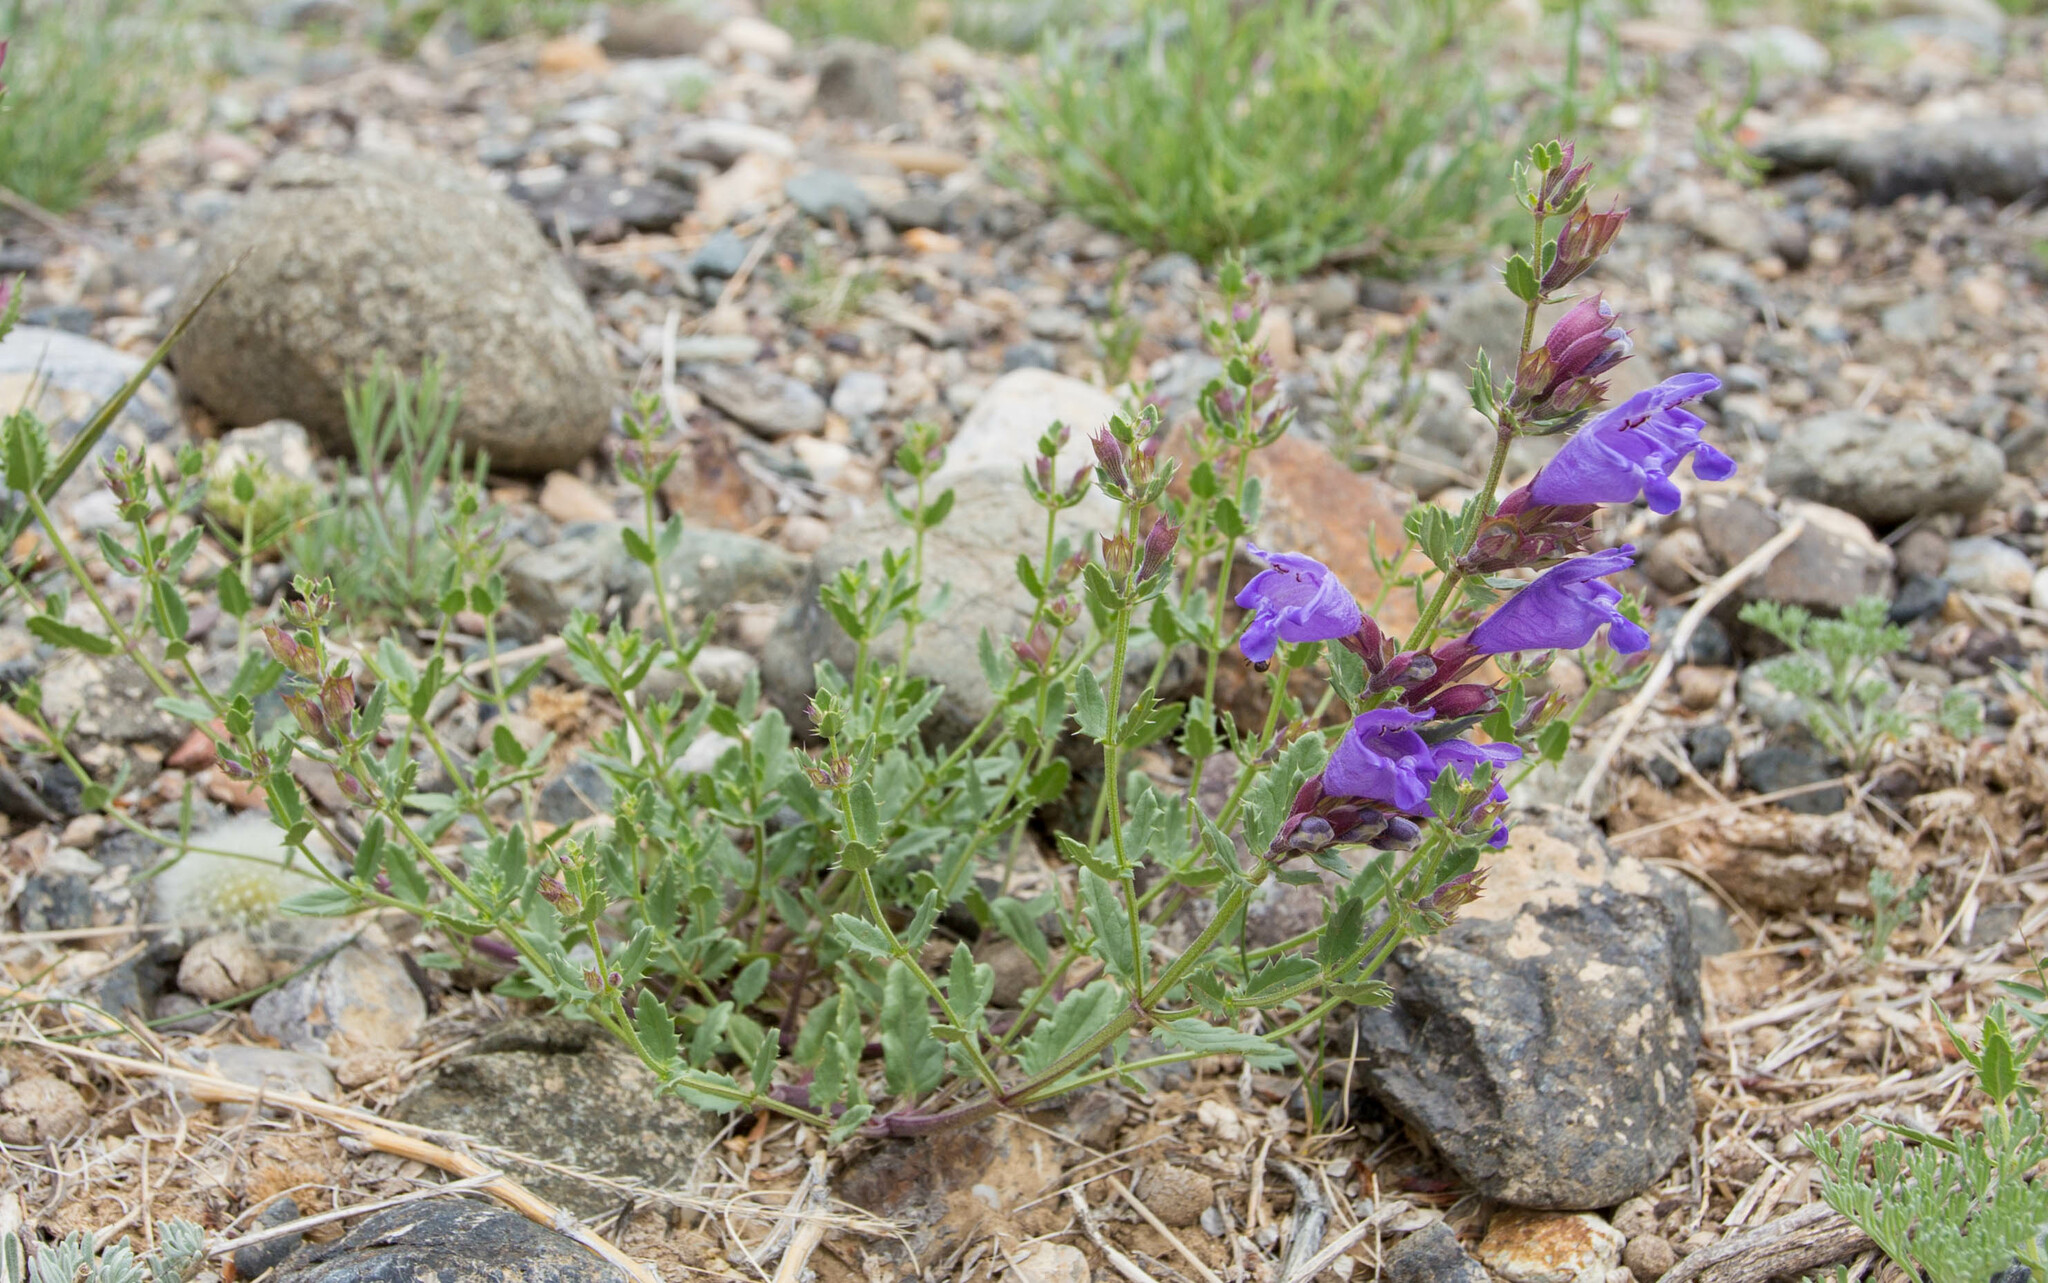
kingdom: Plantae
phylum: Tracheophyta
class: Magnoliopsida
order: Lamiales
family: Lamiaceae
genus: Dracocephalum
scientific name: Dracocephalum peregrinum
